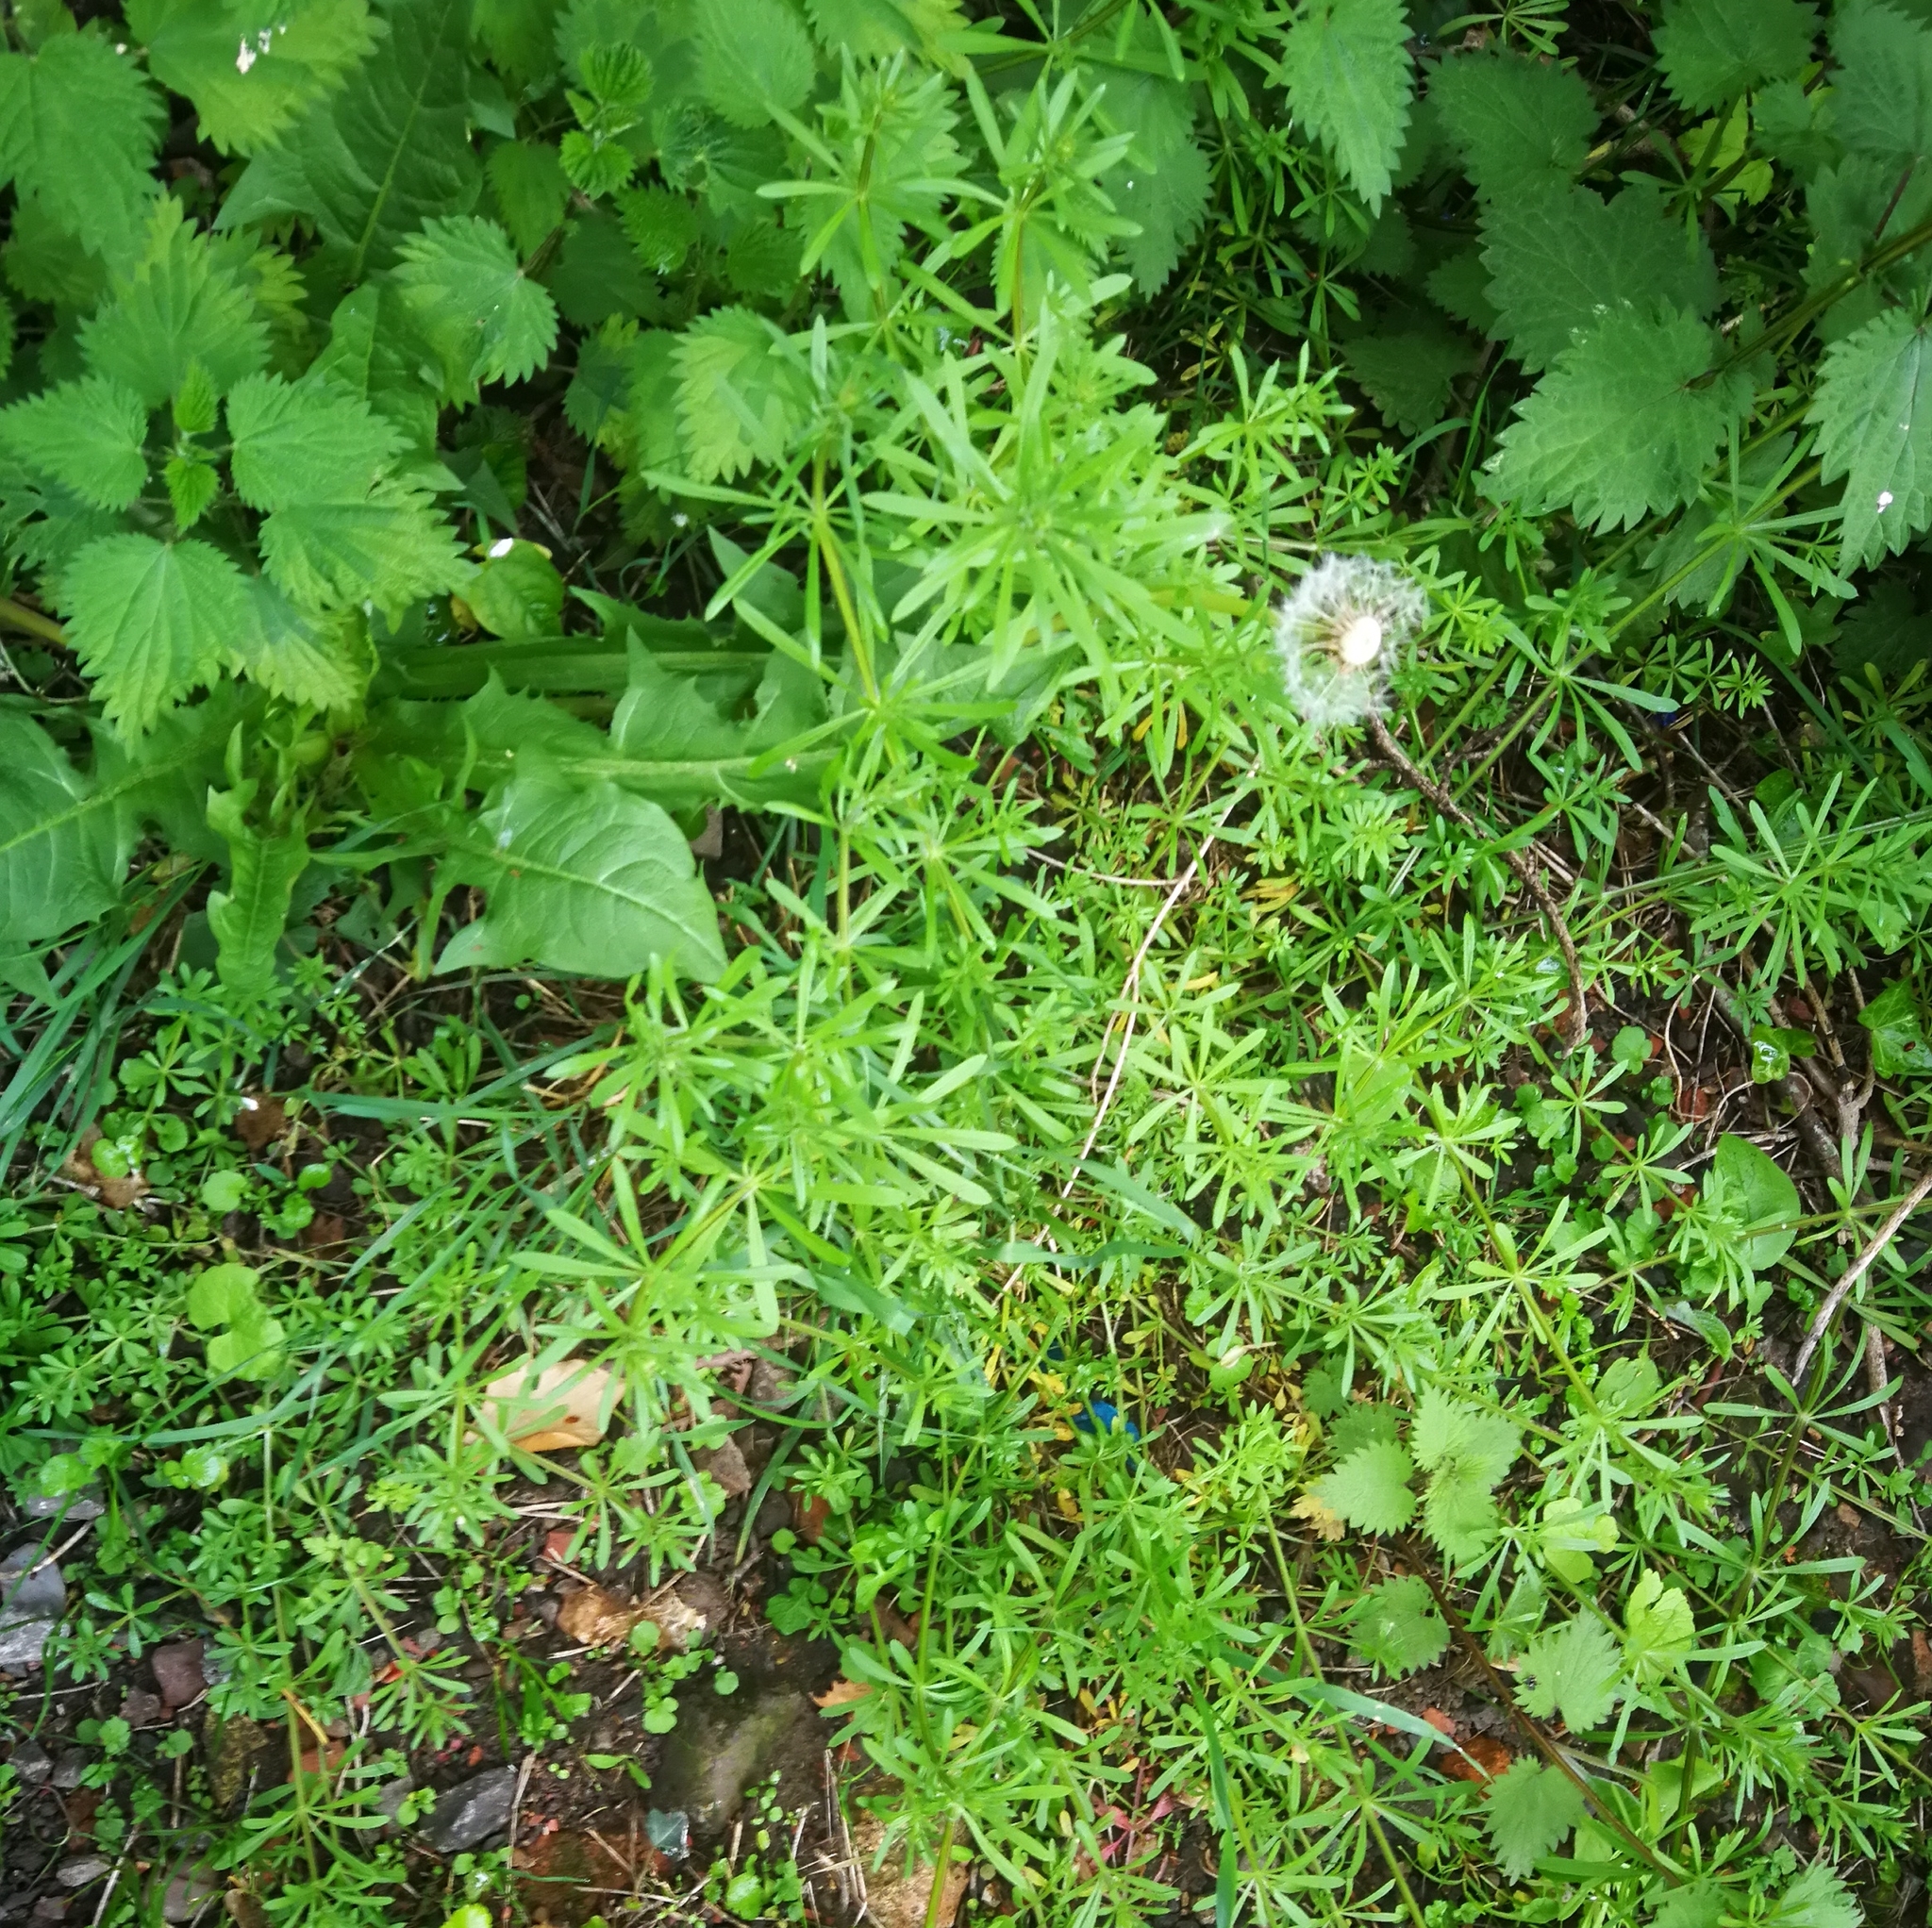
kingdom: Plantae
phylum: Tracheophyta
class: Magnoliopsida
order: Asterales
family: Asteraceae
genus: Taraxacum
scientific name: Taraxacum officinale
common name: Common dandelion
